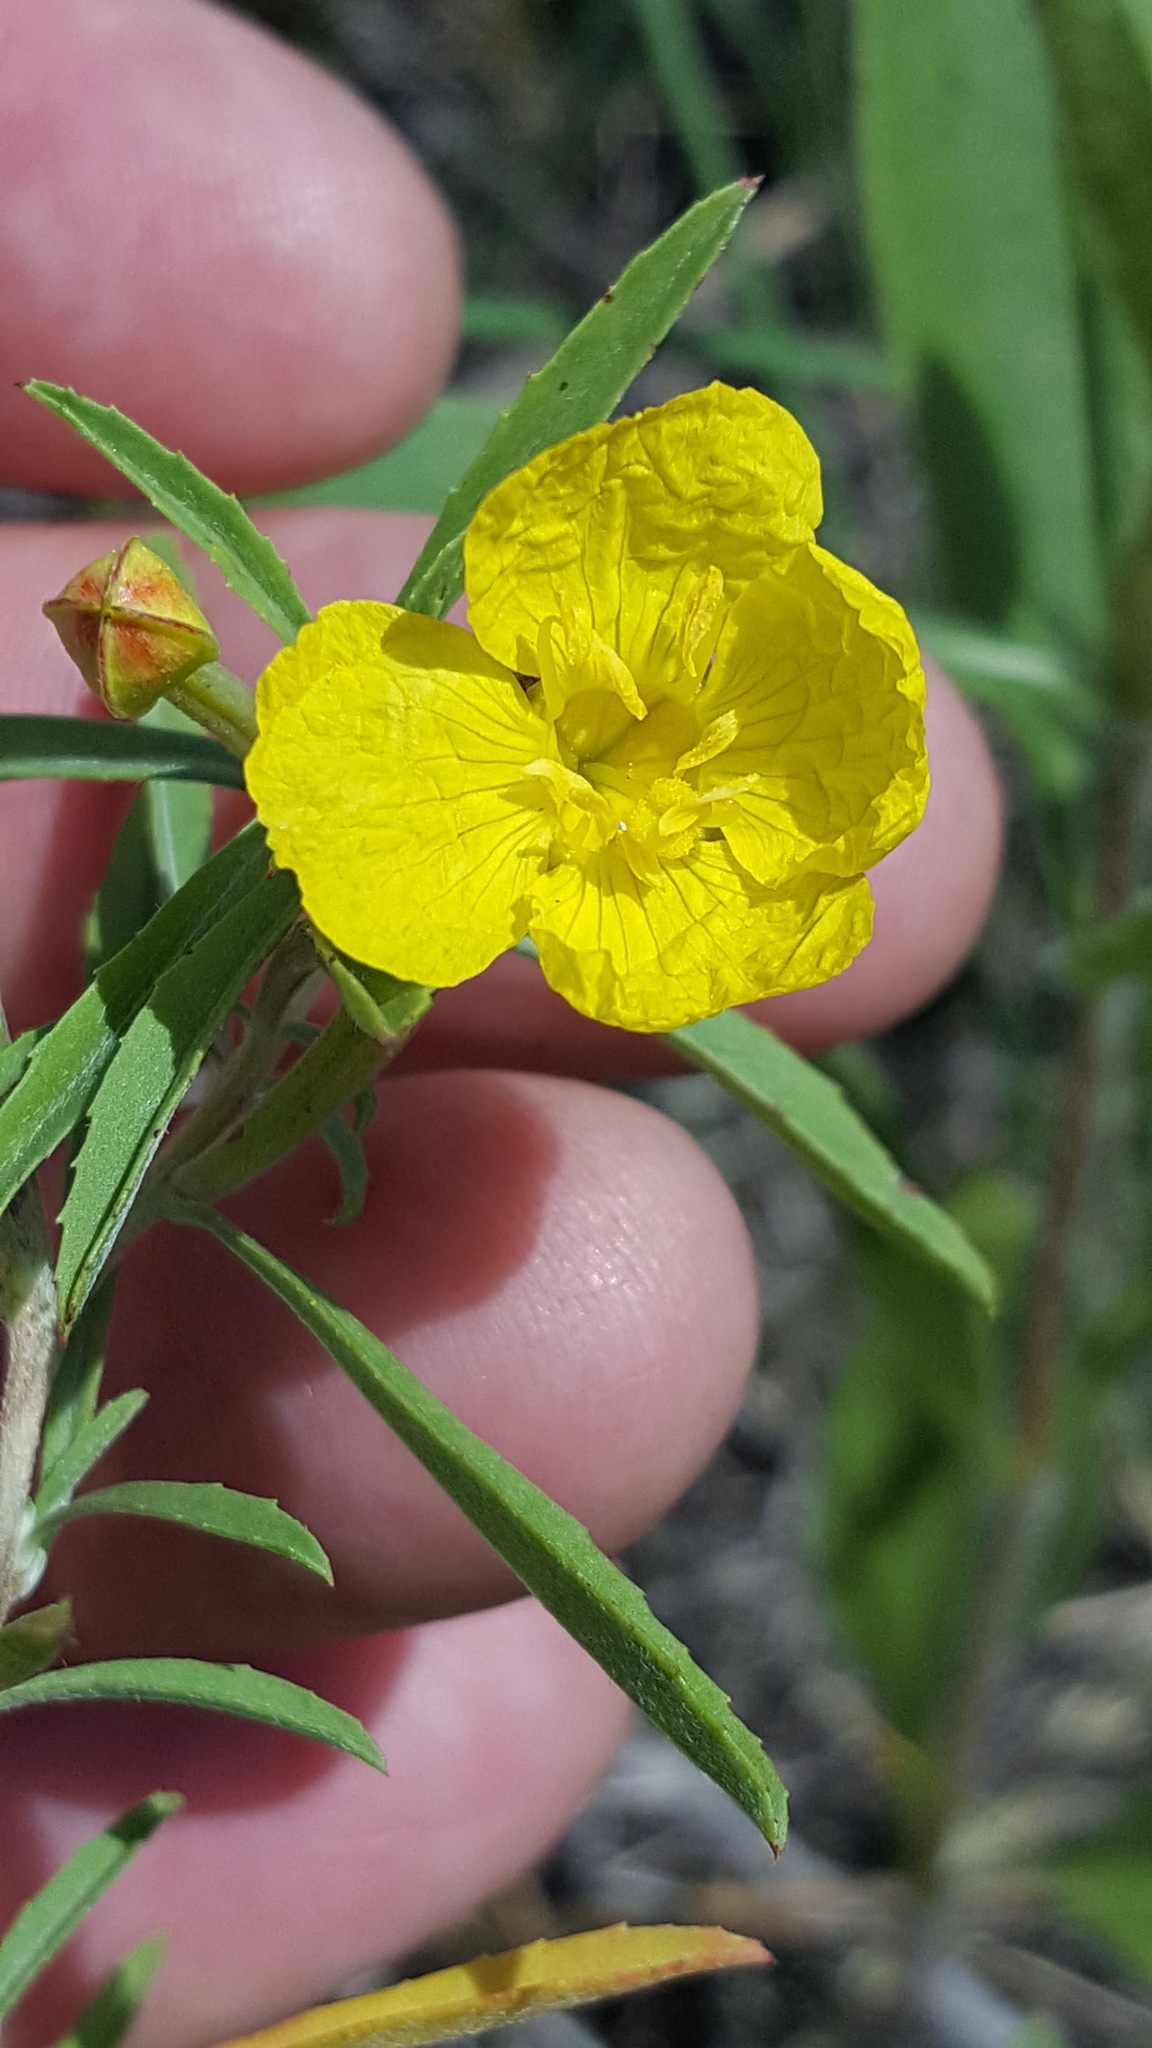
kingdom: Plantae
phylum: Tracheophyta
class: Magnoliopsida
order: Myrtales
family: Onagraceae
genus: Oenothera
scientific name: Oenothera serrulata
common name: Half-shrub calylophus
